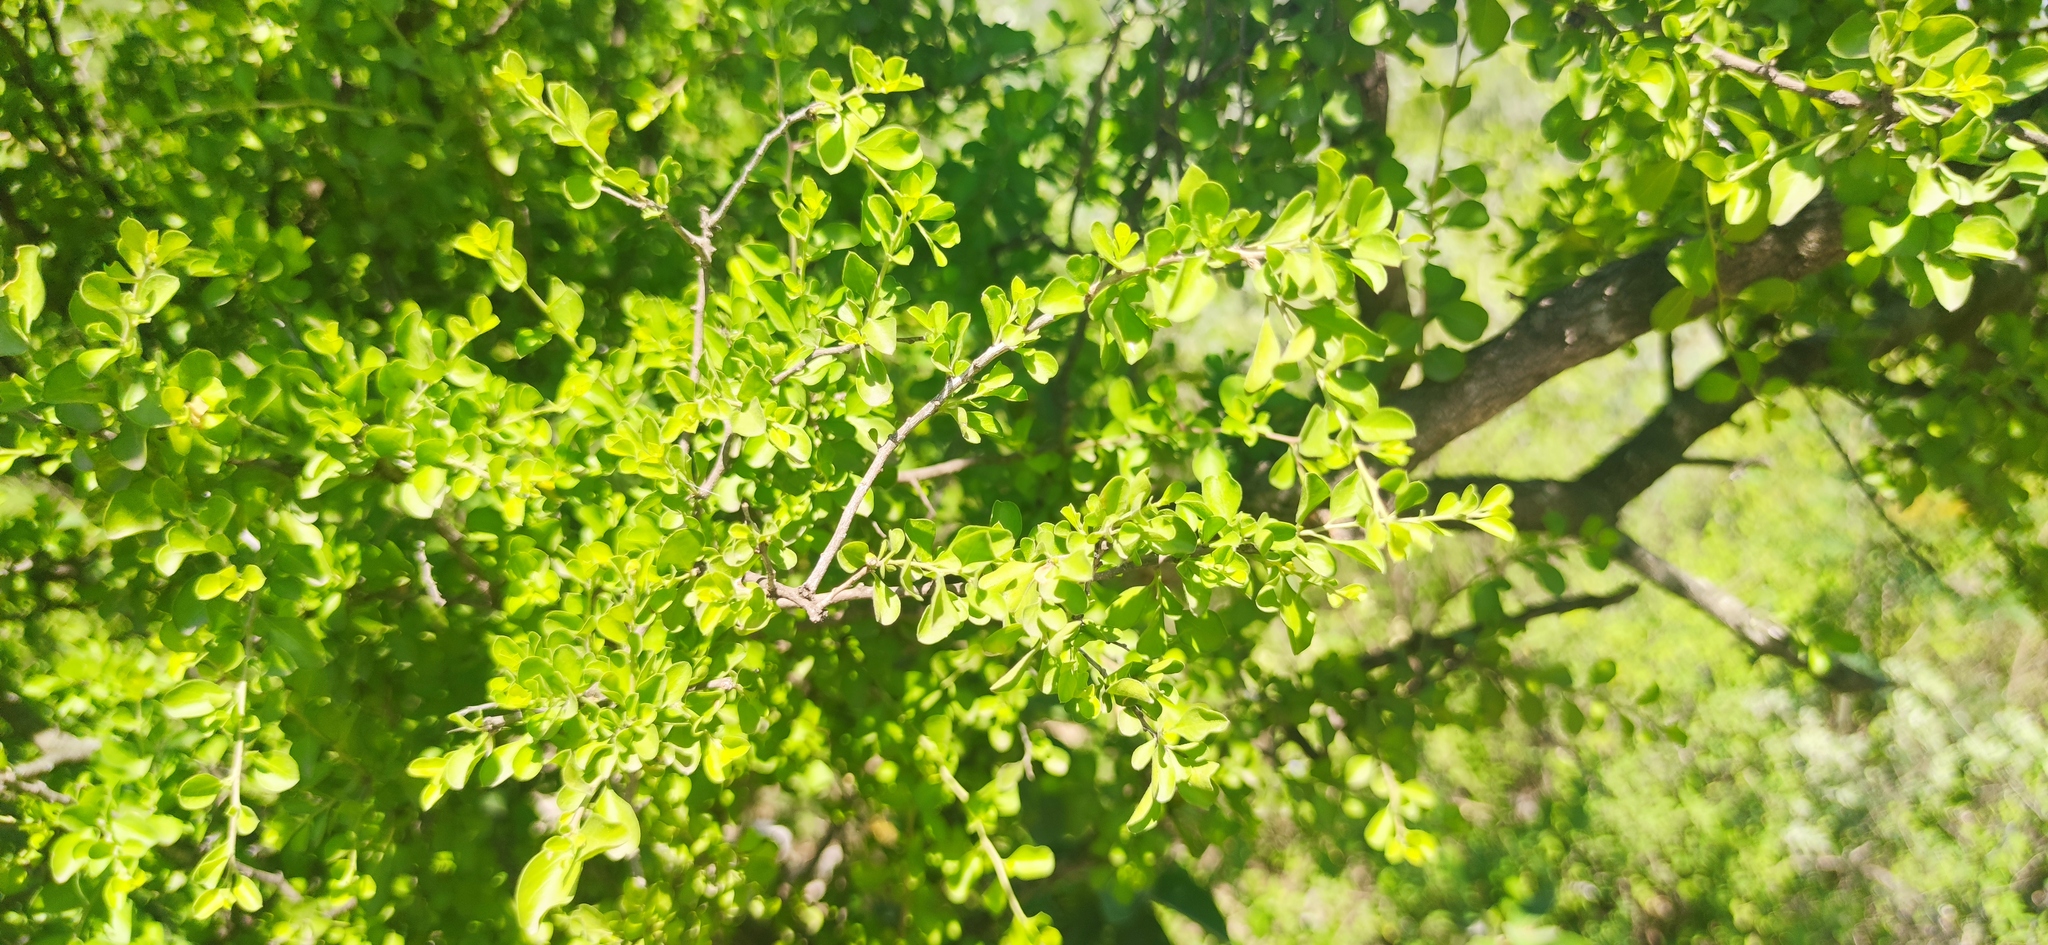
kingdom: Plantae
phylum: Tracheophyta
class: Magnoliopsida
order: Rosales
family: Rhamnaceae
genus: Condalia
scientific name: Condalia hookeri
